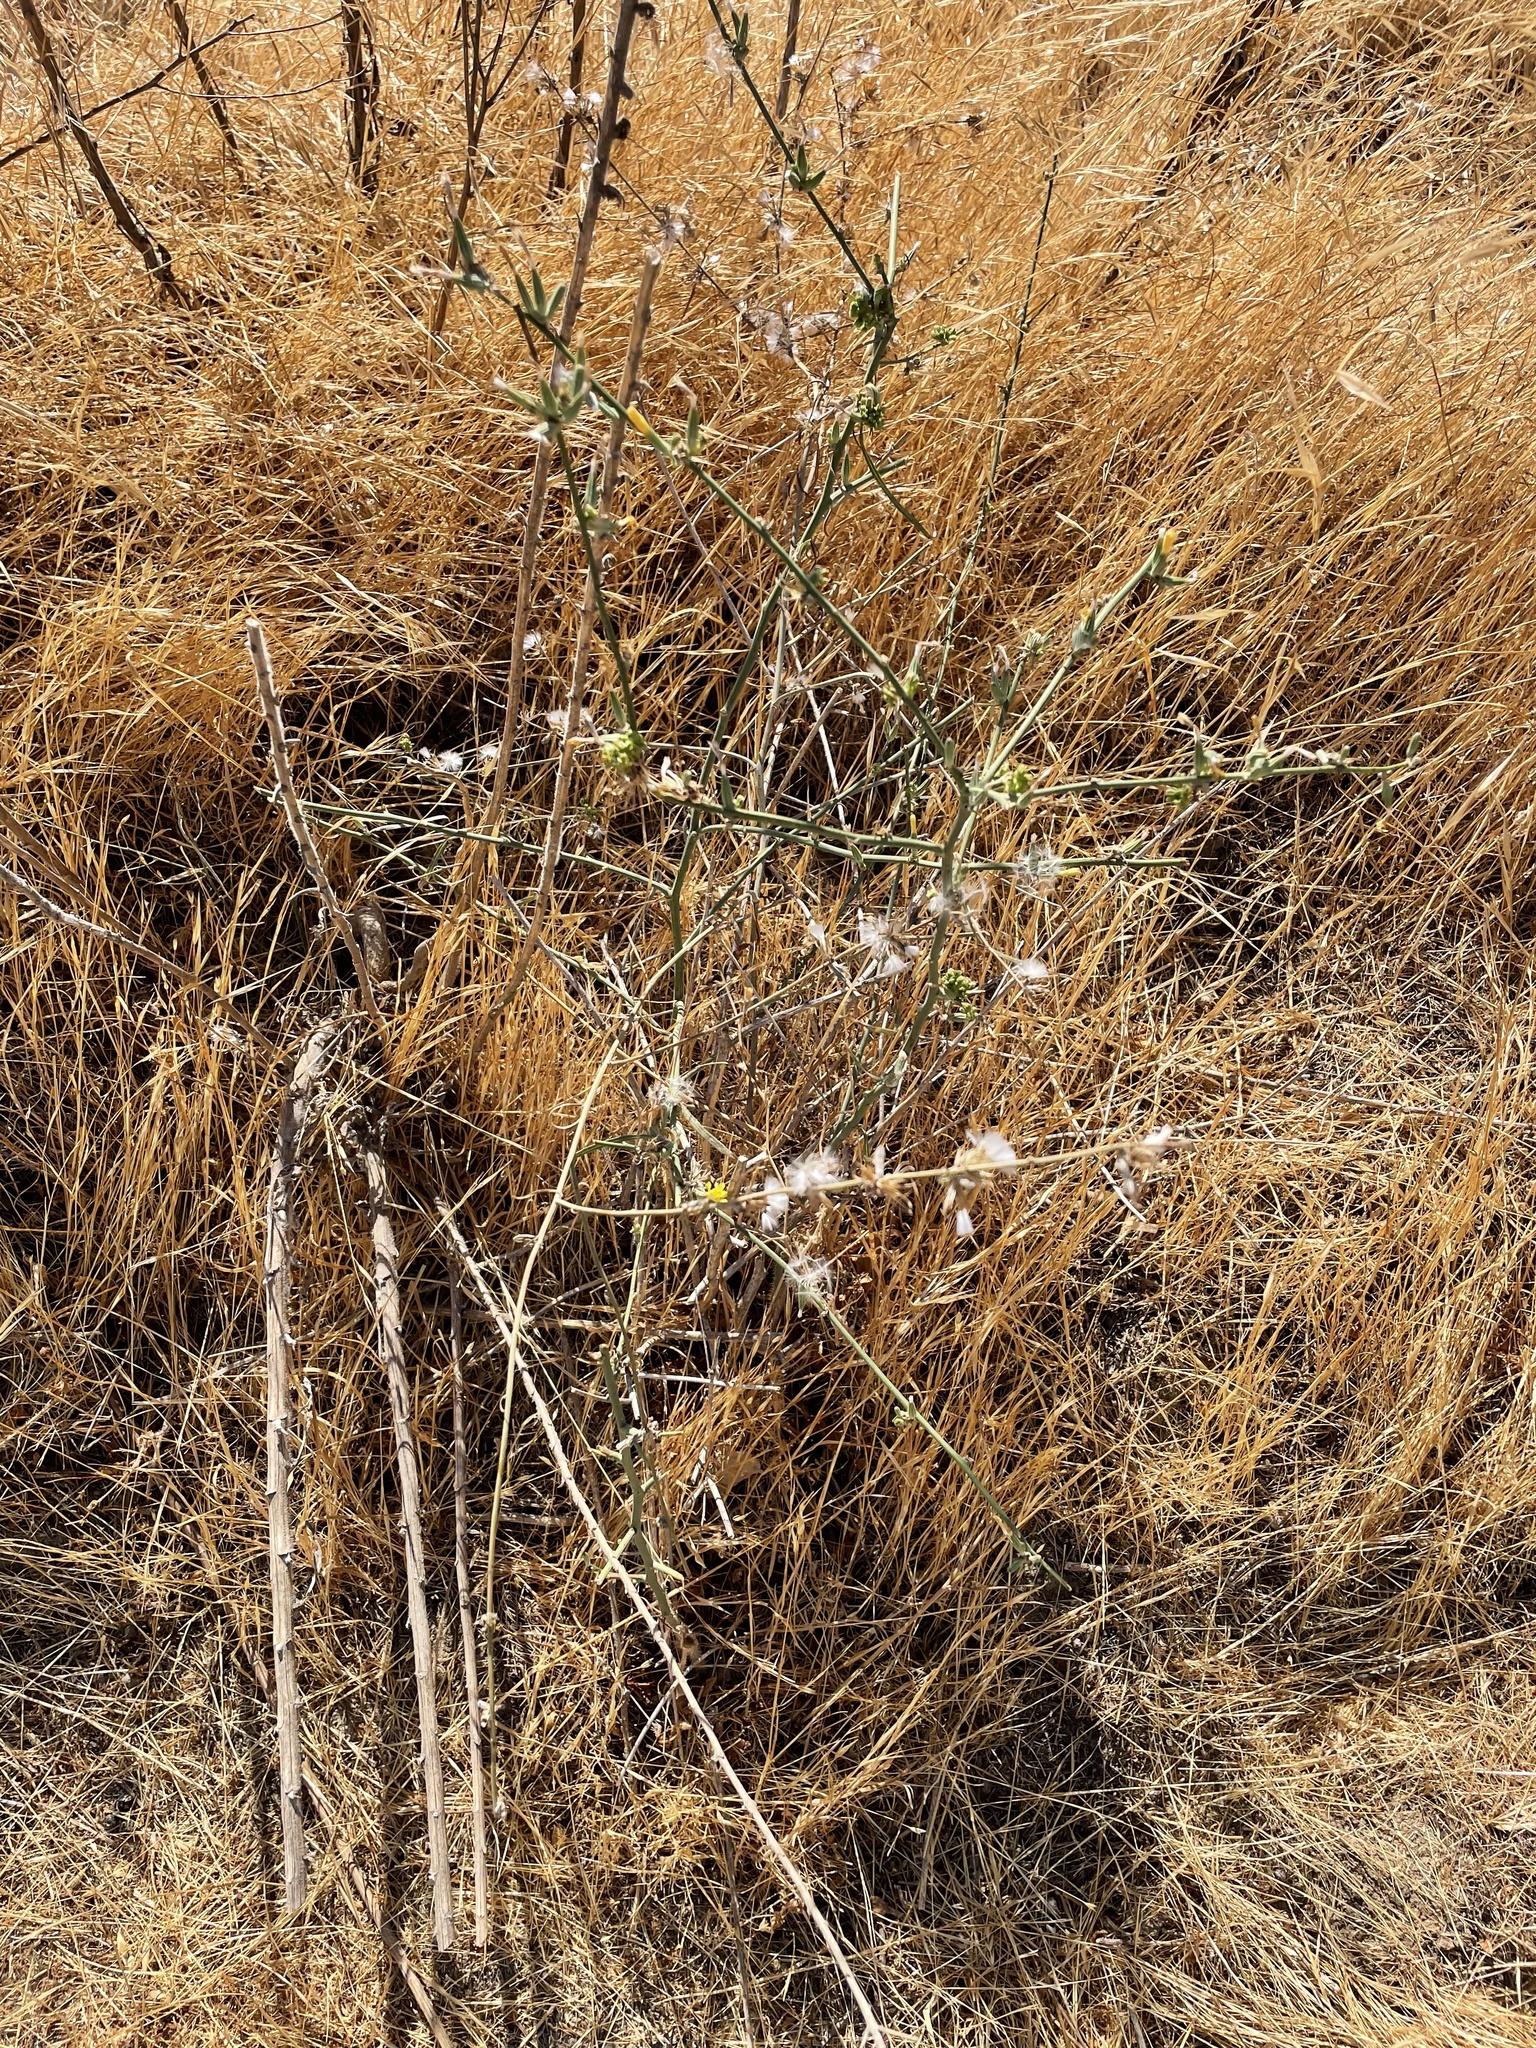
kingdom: Plantae
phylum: Tracheophyta
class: Magnoliopsida
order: Asterales
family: Asteraceae
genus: Chondrilla
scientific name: Chondrilla juncea
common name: Skeleton weed
